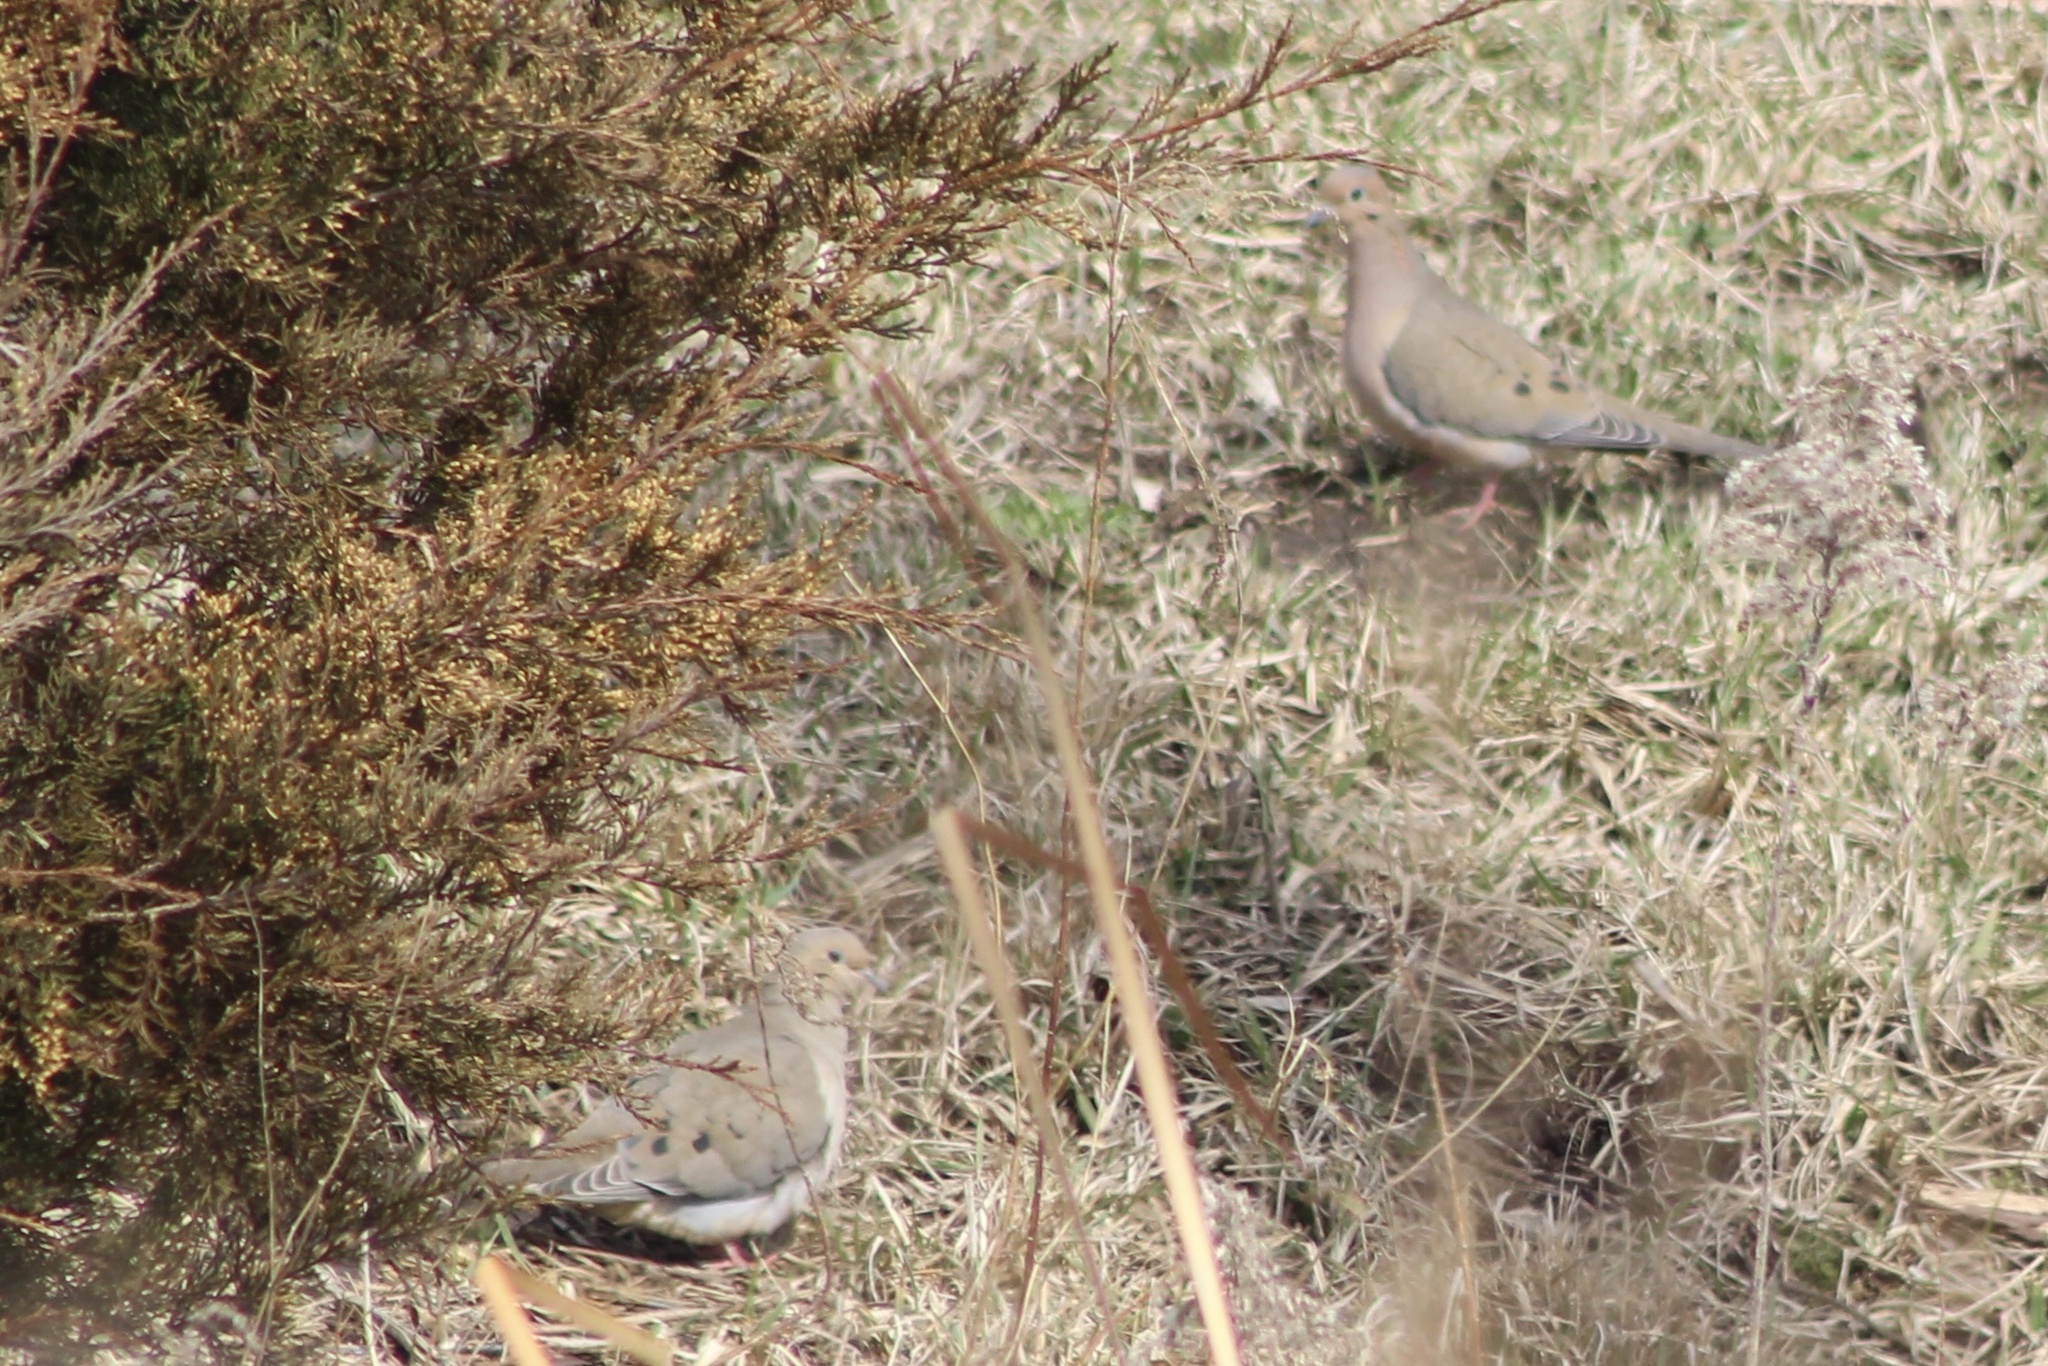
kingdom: Animalia
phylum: Chordata
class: Aves
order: Columbiformes
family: Columbidae
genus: Zenaida
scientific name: Zenaida macroura
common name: Mourning dove
